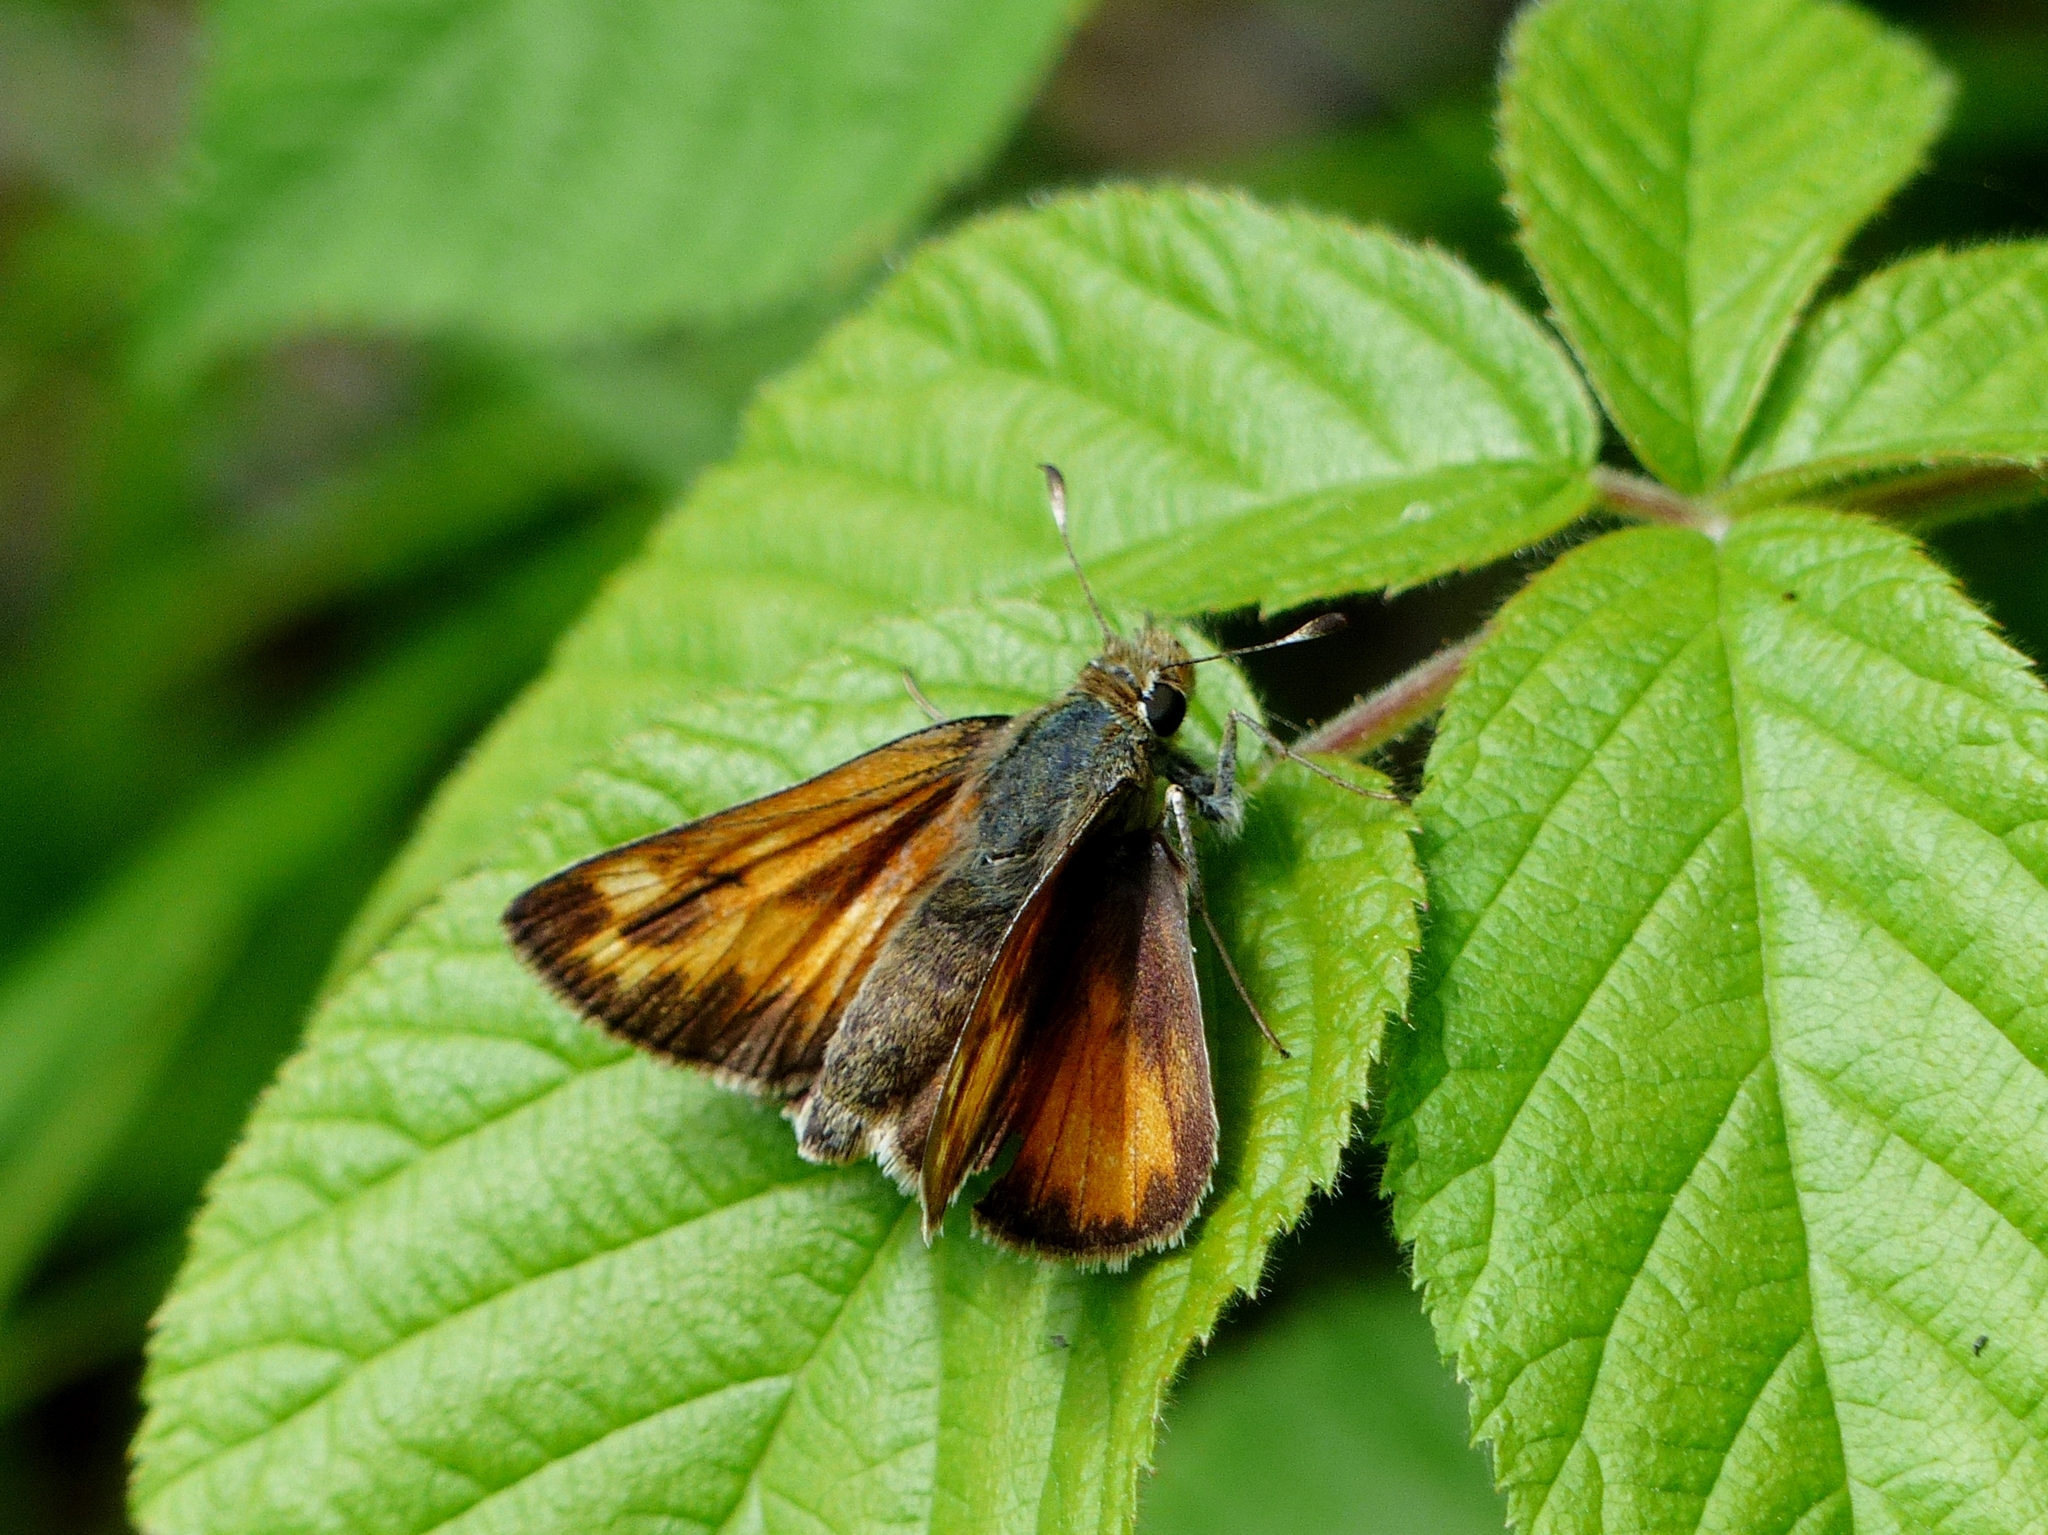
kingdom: Animalia
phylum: Arthropoda
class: Insecta
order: Lepidoptera
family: Hesperiidae
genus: Hesperia
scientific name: Hesperia sassacus
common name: Indian skipper
